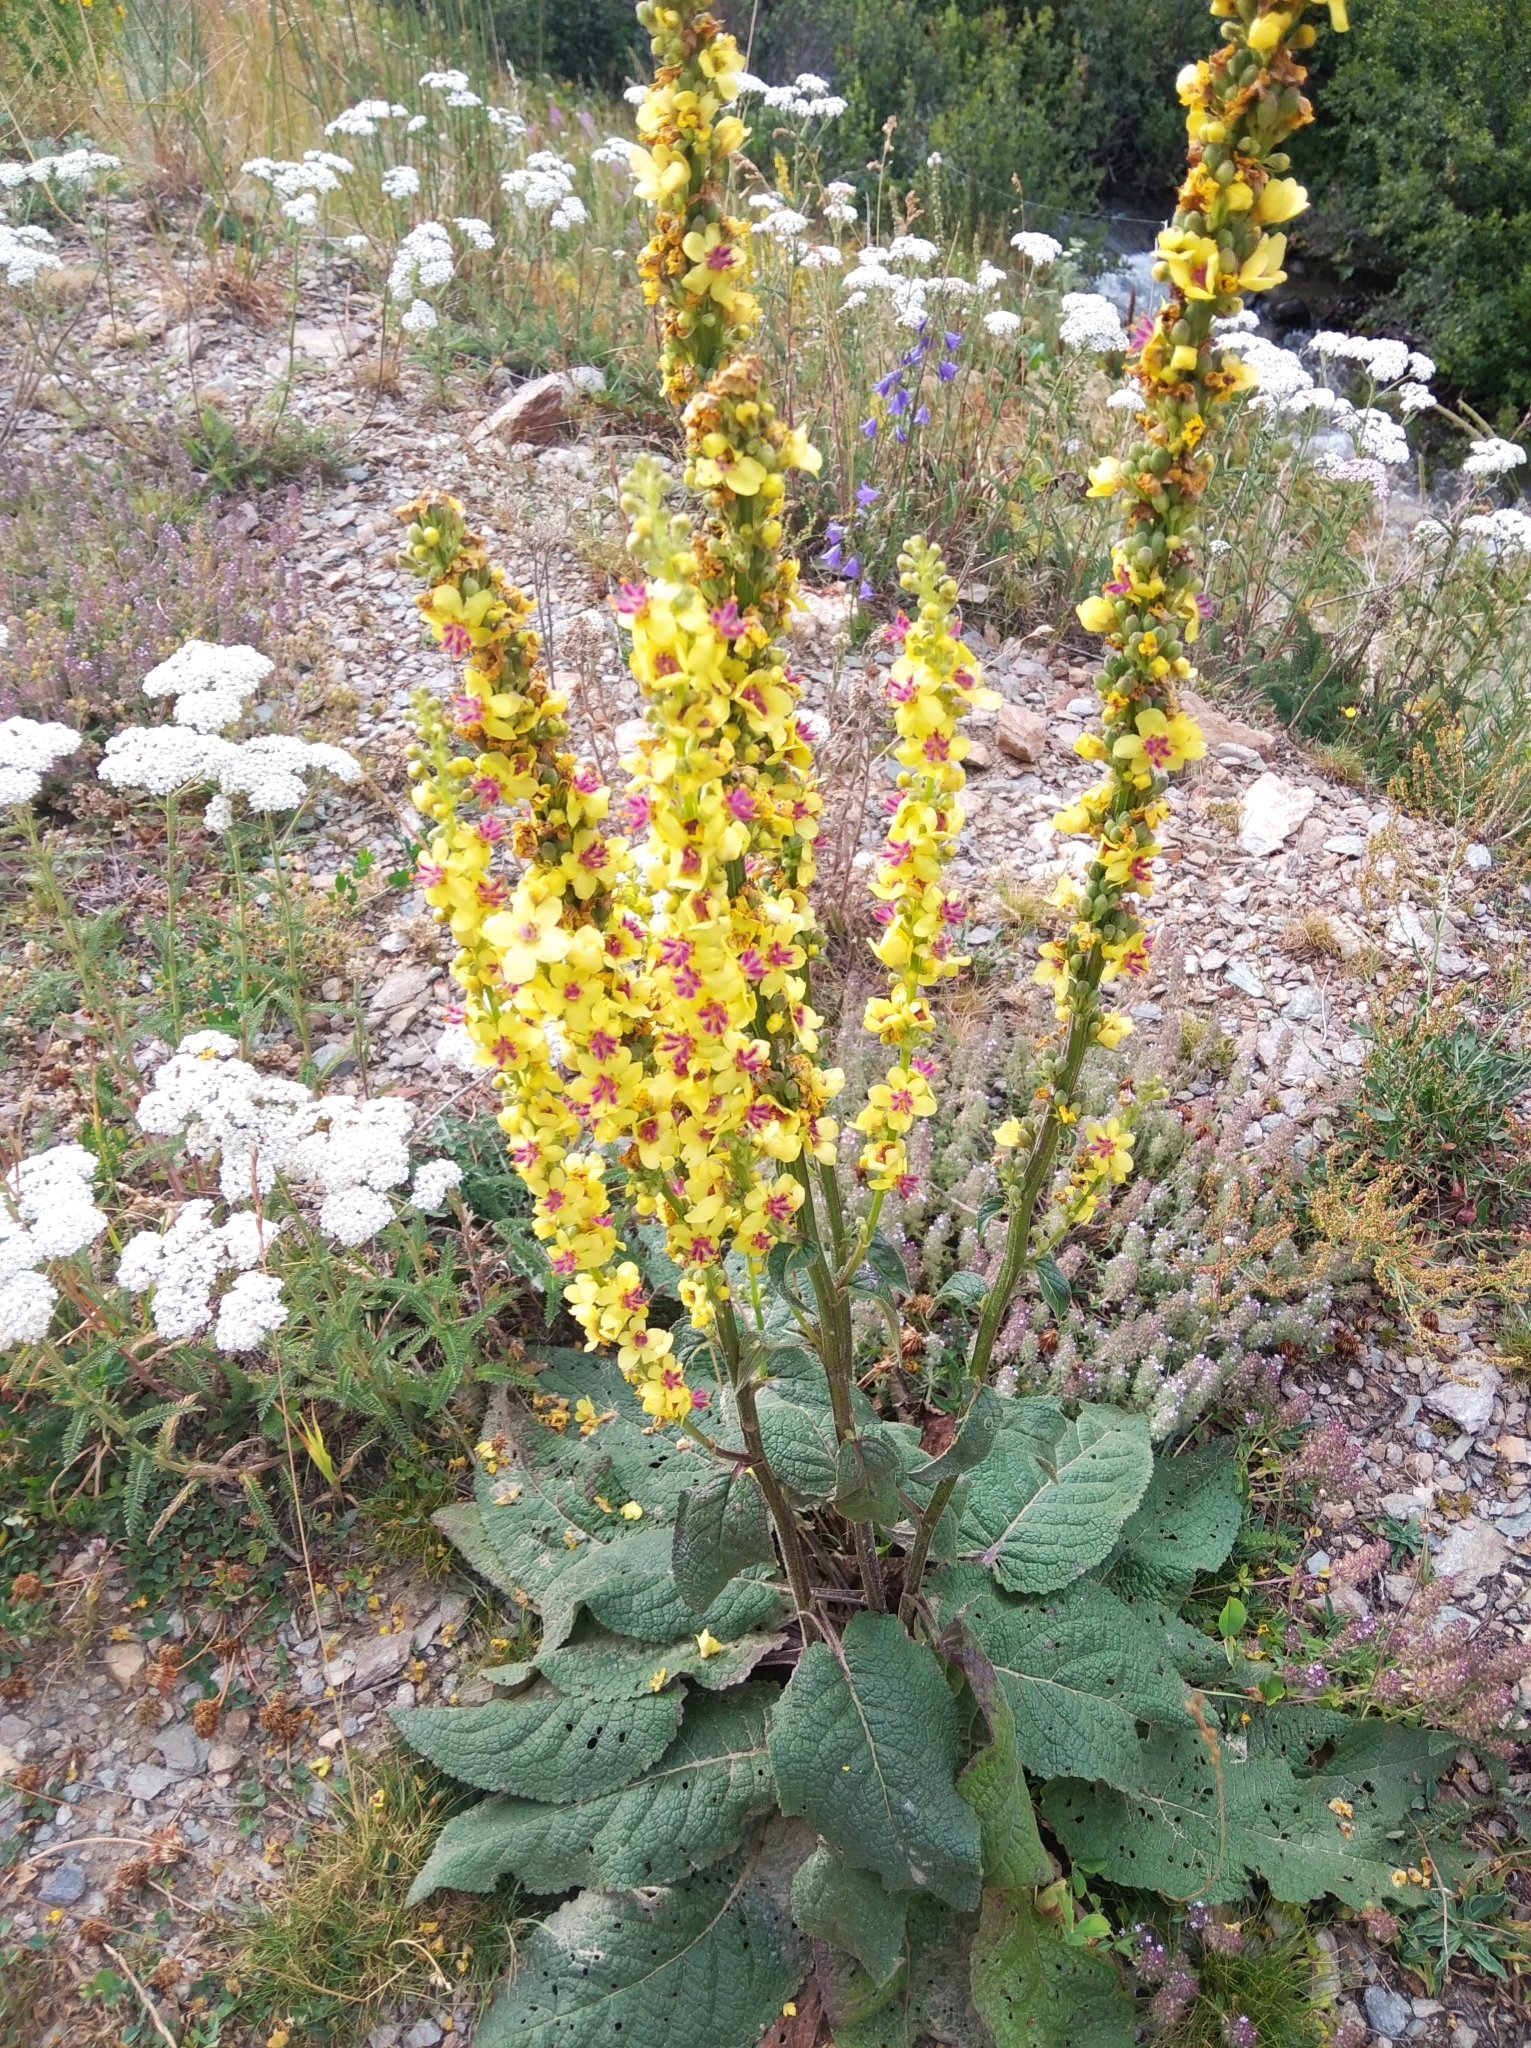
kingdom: Plantae
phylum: Tracheophyta
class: Magnoliopsida
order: Lamiales
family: Scrophulariaceae
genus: Verbascum
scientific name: Verbascum nigrum
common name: Dark mullein
